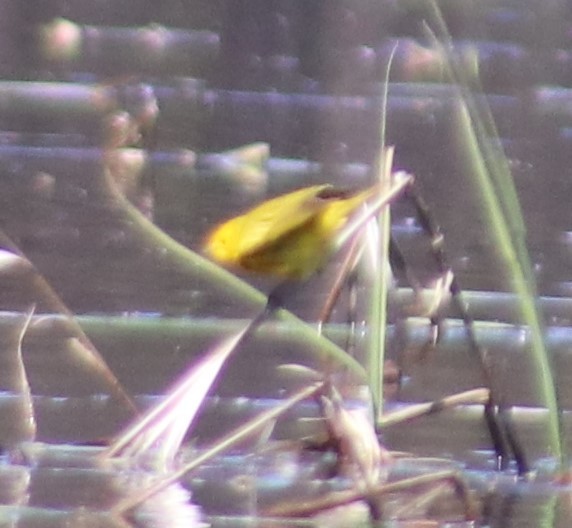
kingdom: Animalia
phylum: Chordata
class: Aves
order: Passeriformes
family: Parulidae
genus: Setophaga
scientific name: Setophaga petechia
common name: Yellow warbler
